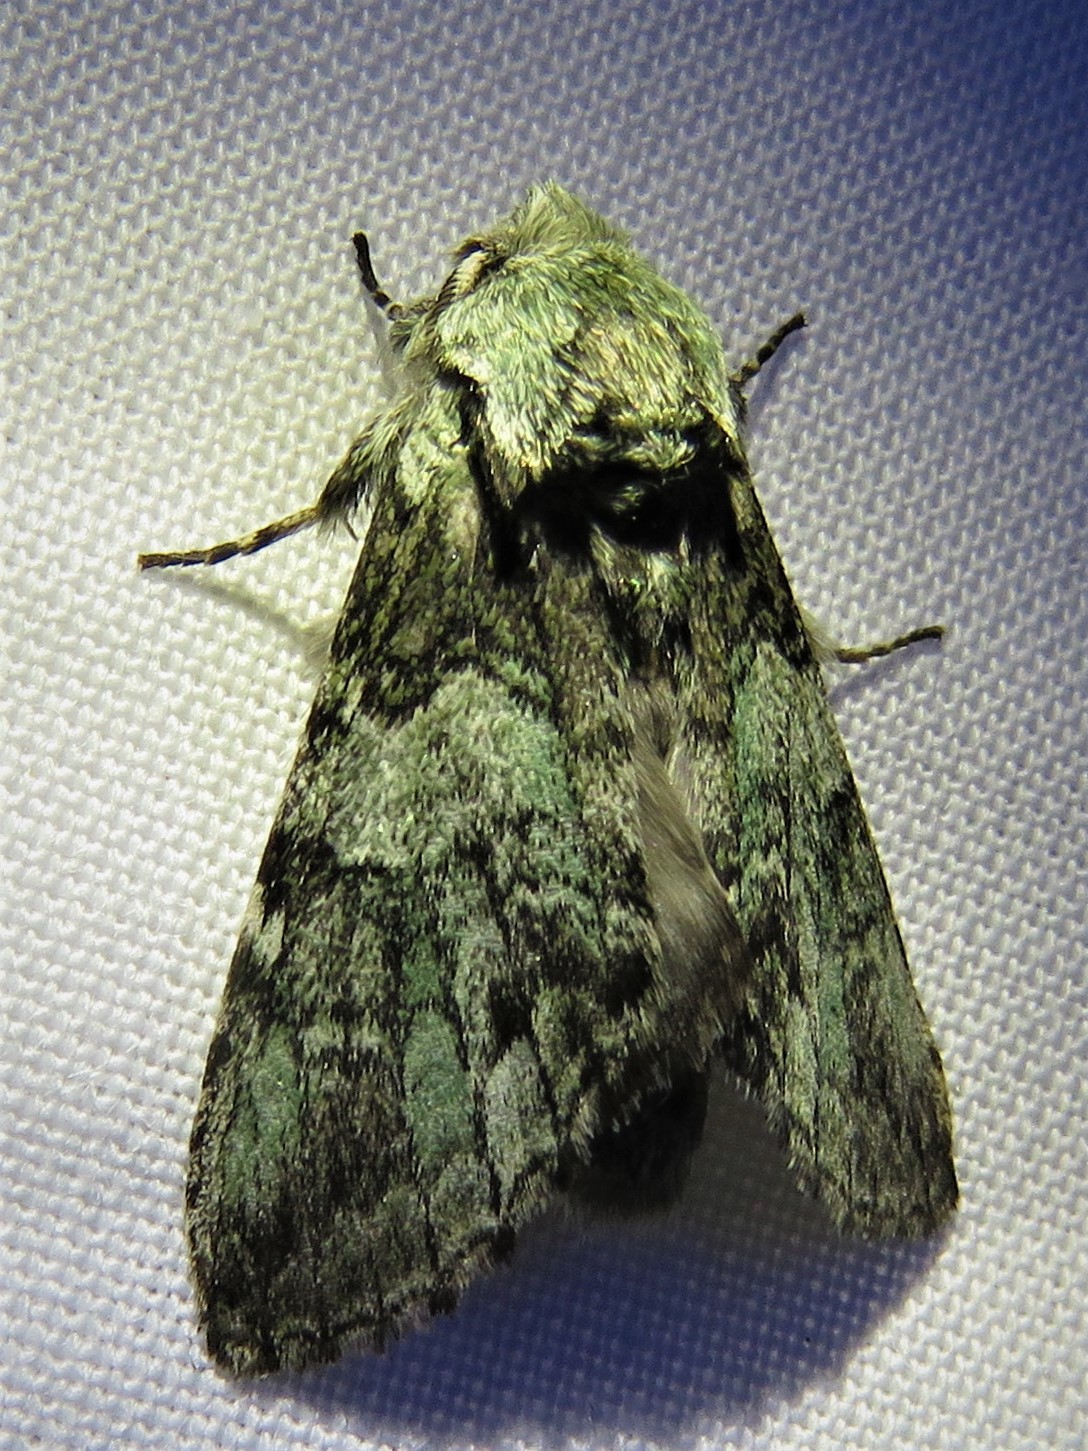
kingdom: Animalia
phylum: Arthropoda
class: Insecta
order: Lepidoptera
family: Notodontidae
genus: Macrurocampa
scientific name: Macrurocampa marthesia
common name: Mottled prominent
